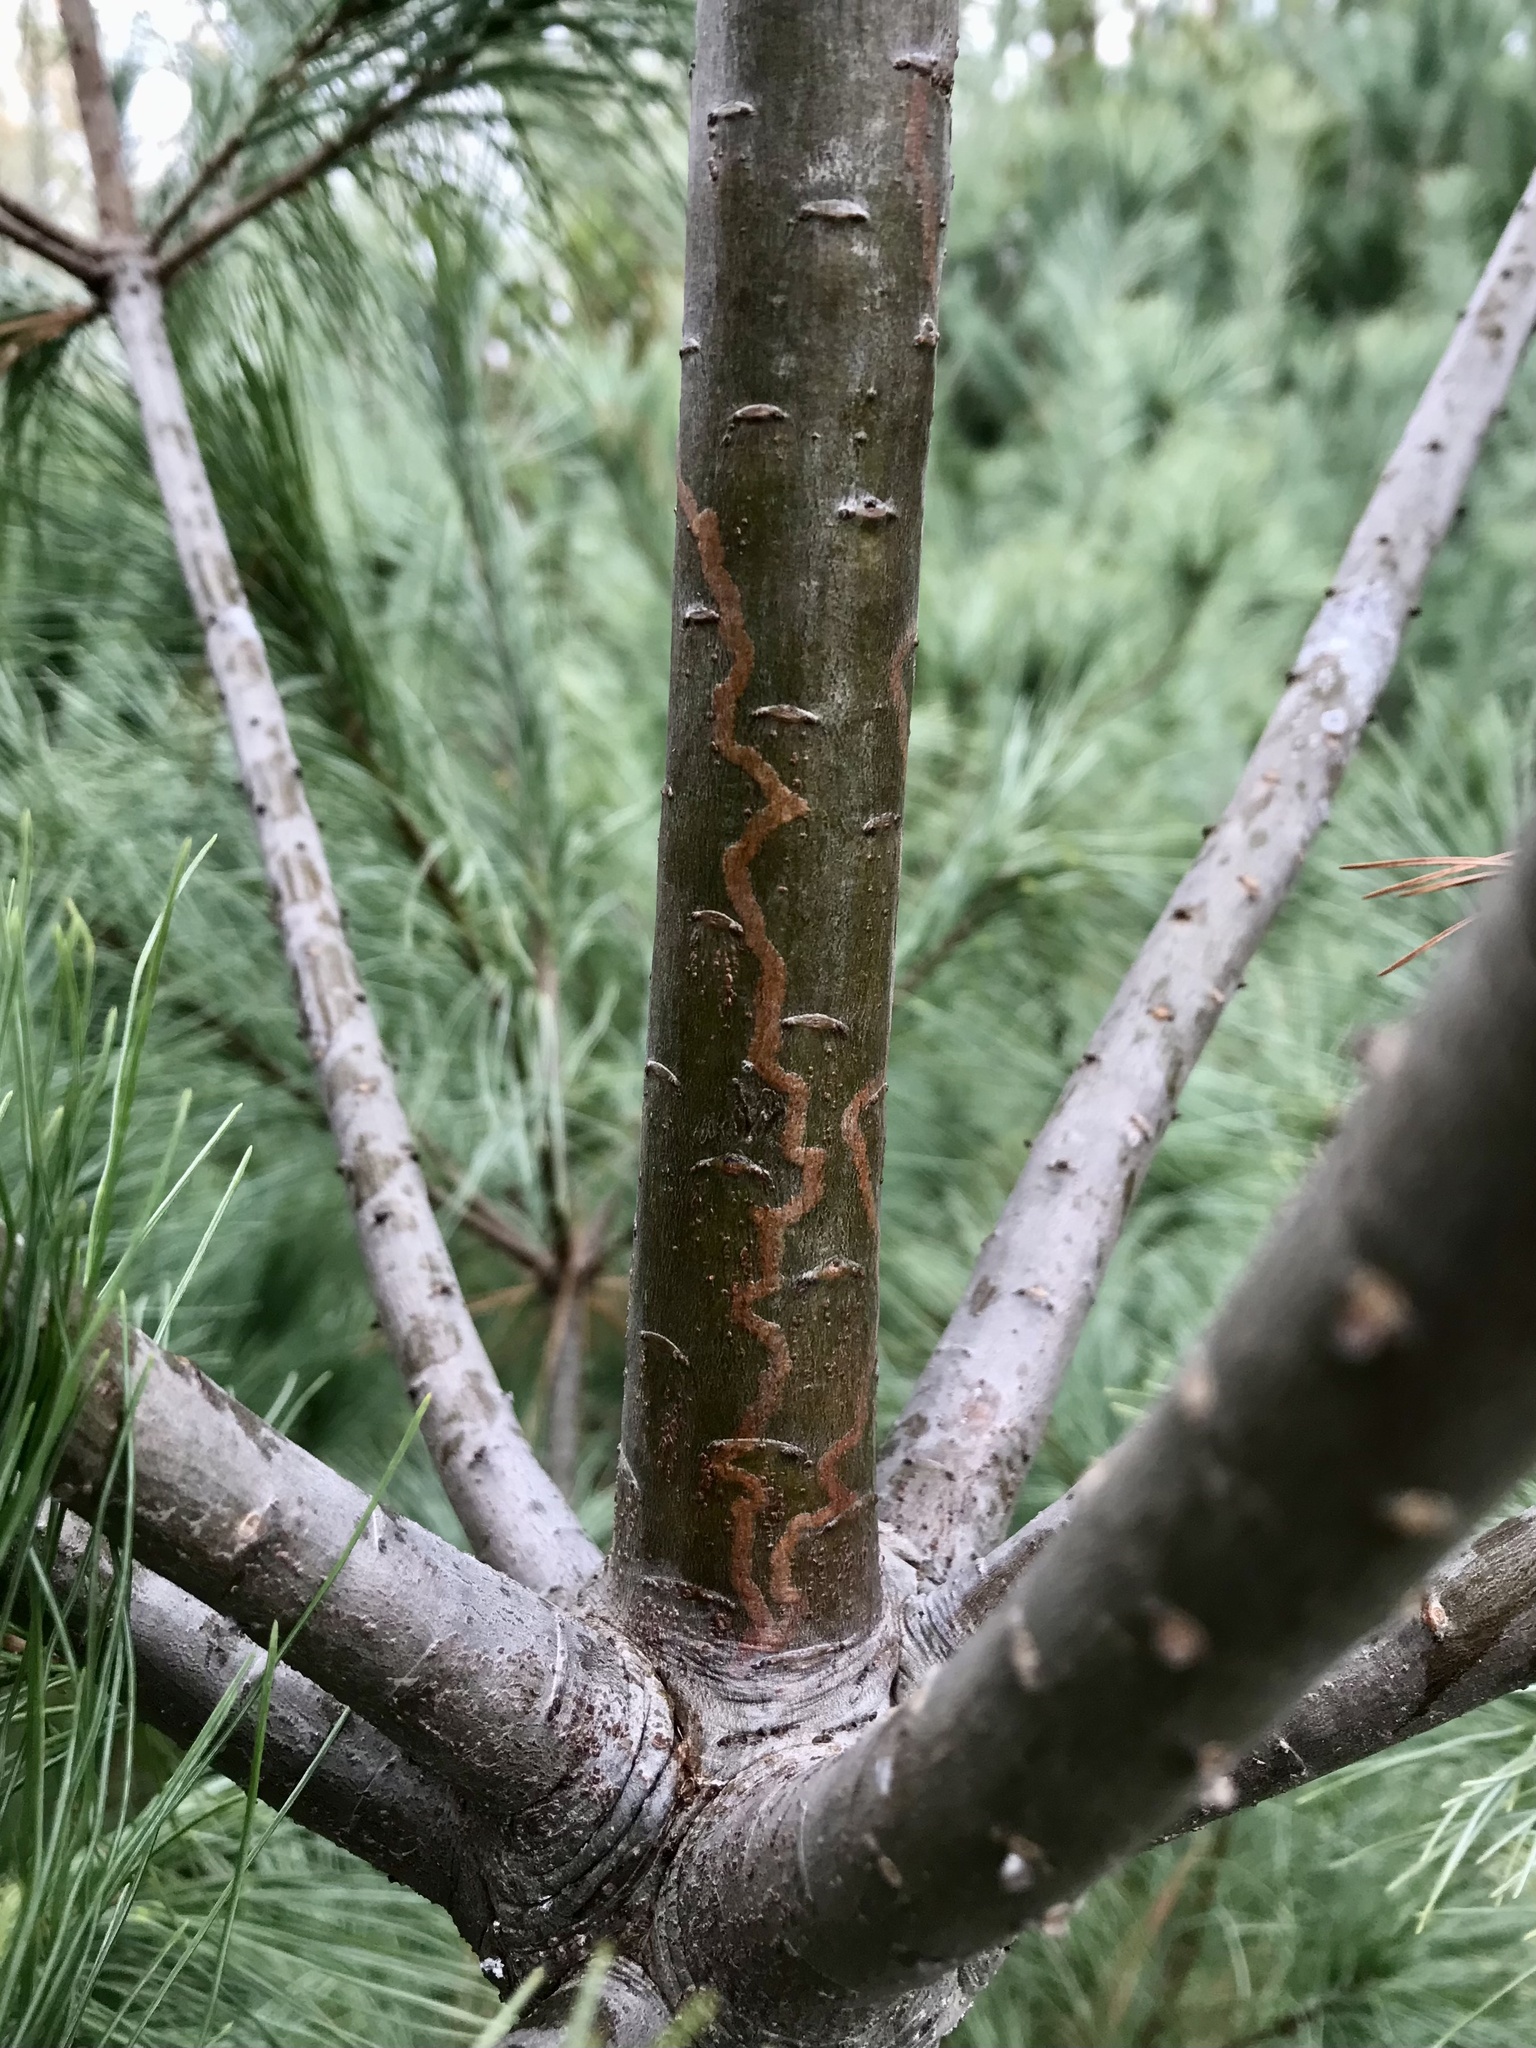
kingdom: Animalia
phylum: Arthropoda
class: Insecta
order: Lepidoptera
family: Gracillariidae
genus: Marmara
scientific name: Marmara fasciella
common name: White pine barkminer moth
